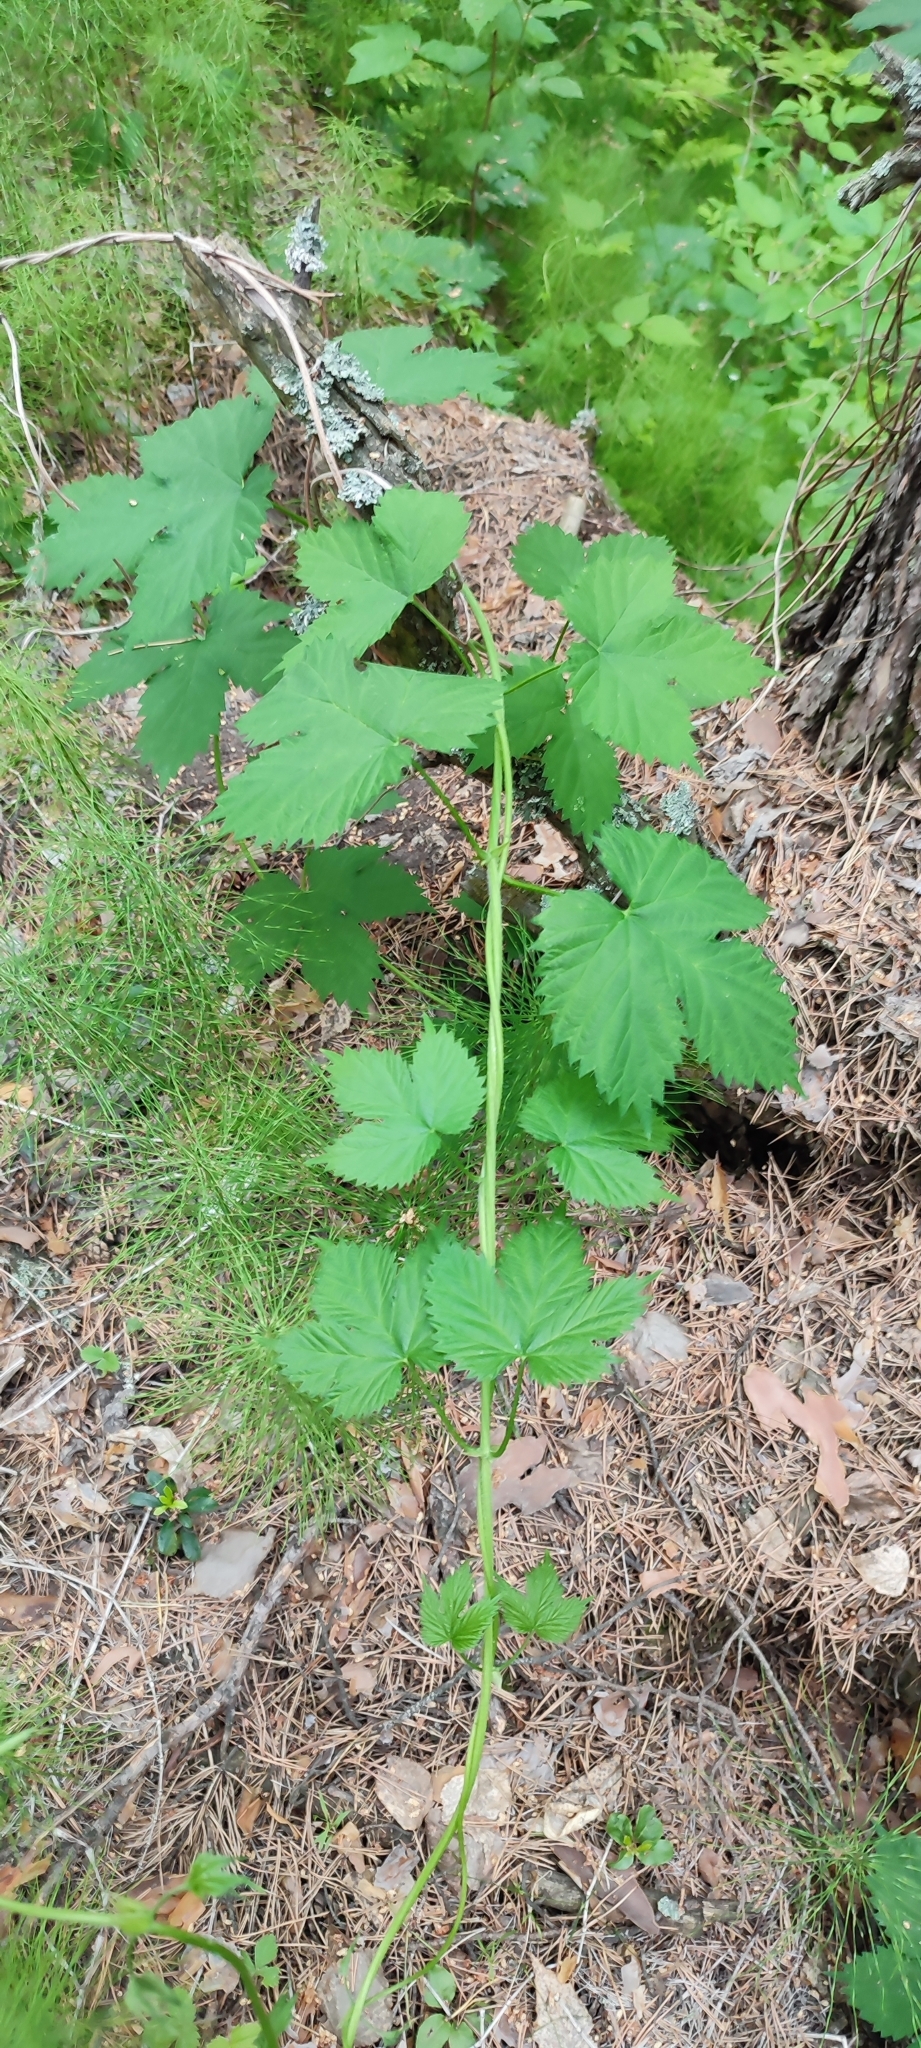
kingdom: Plantae
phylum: Tracheophyta
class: Magnoliopsida
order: Rosales
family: Cannabaceae
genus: Humulus
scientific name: Humulus lupulus
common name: Hop
